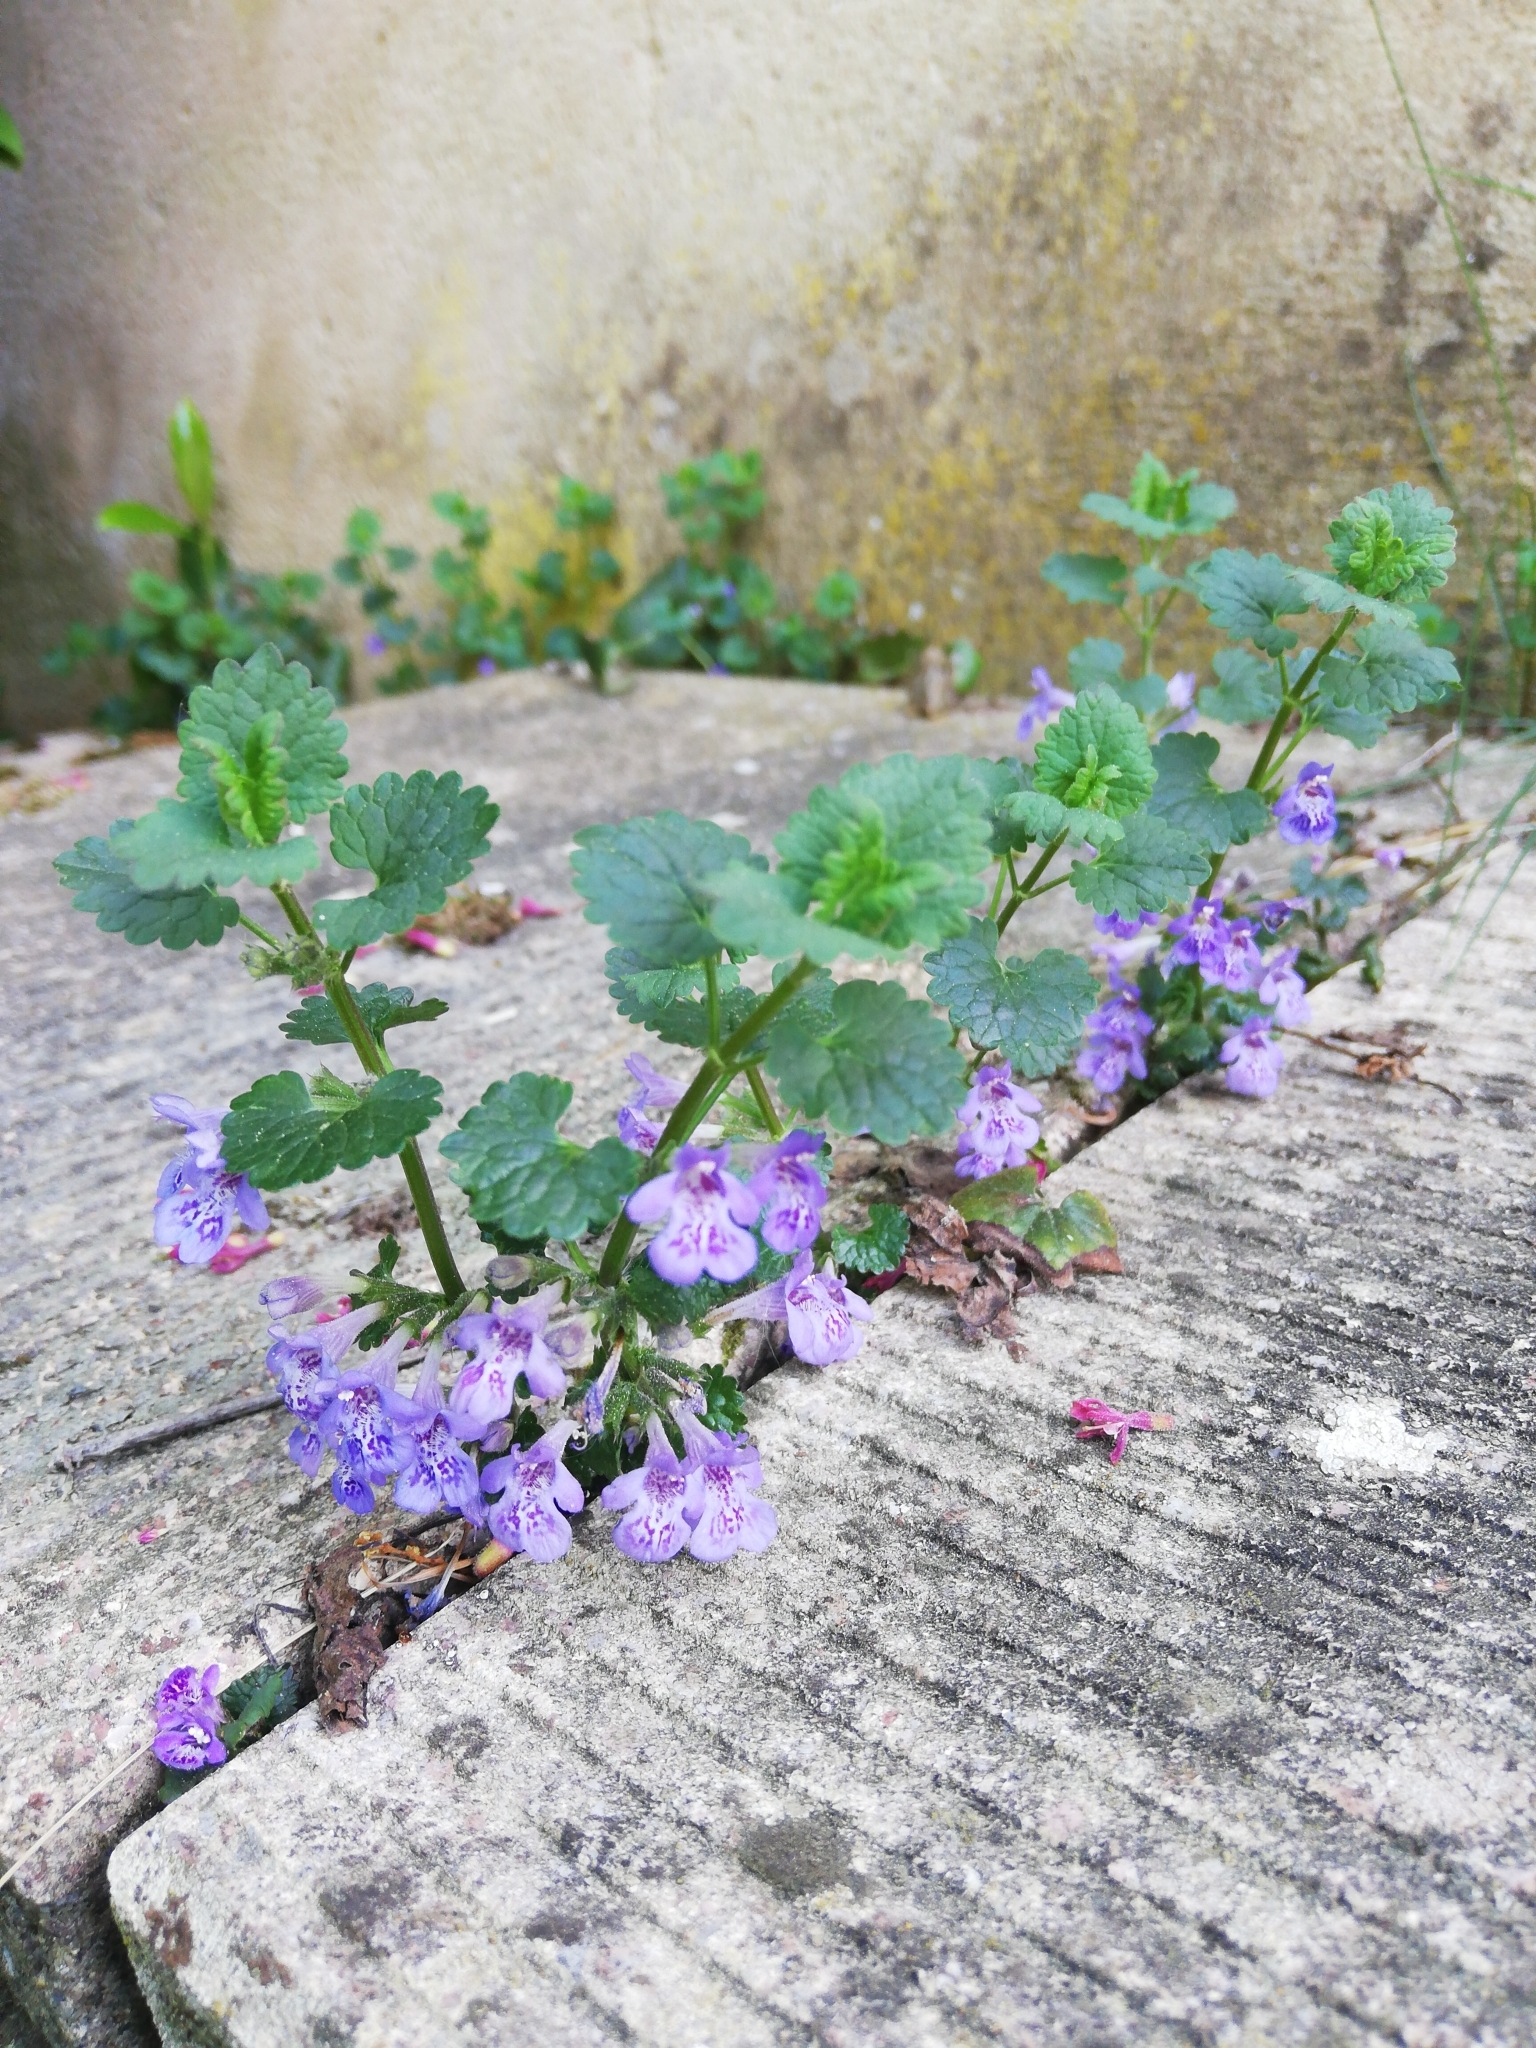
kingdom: Plantae
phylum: Tracheophyta
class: Magnoliopsida
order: Lamiales
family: Lamiaceae
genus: Glechoma
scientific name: Glechoma hederacea
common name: Ground ivy
